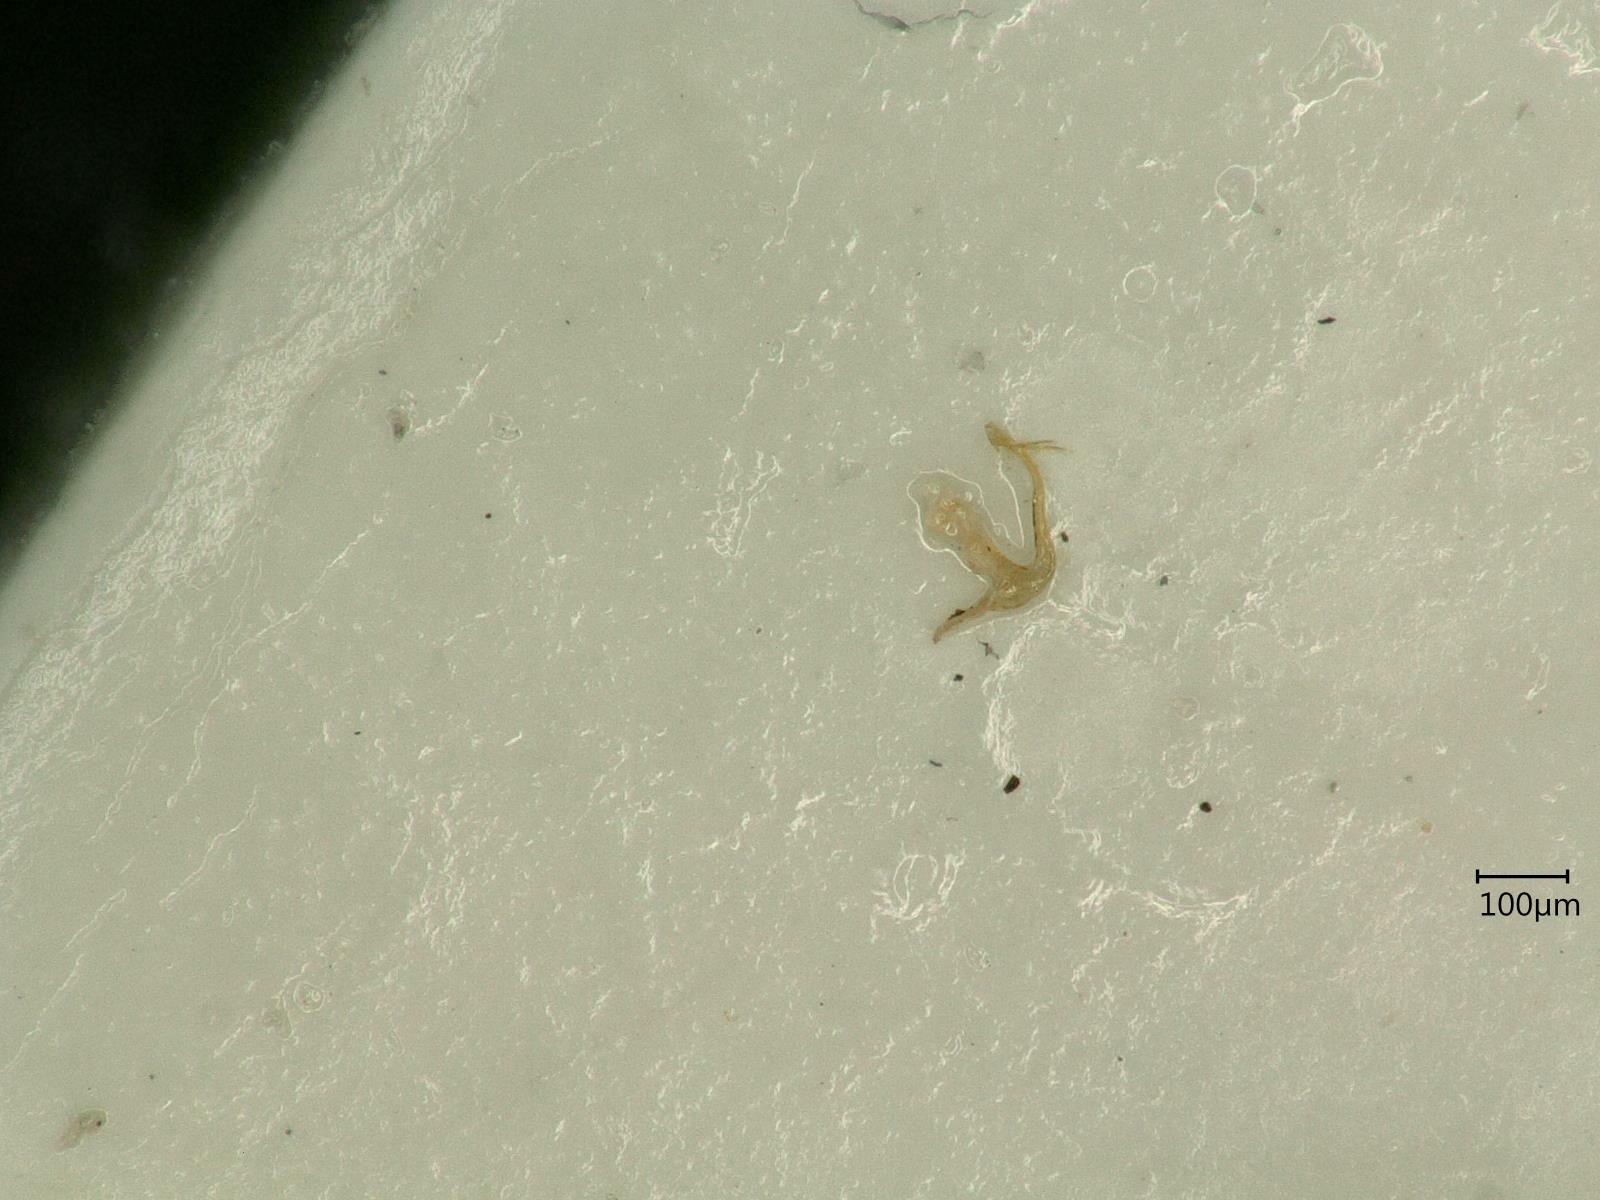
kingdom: Animalia
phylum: Arthropoda
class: Insecta
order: Hemiptera
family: Cicadellidae
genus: Eupteryx
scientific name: Eupteryx cyclops
